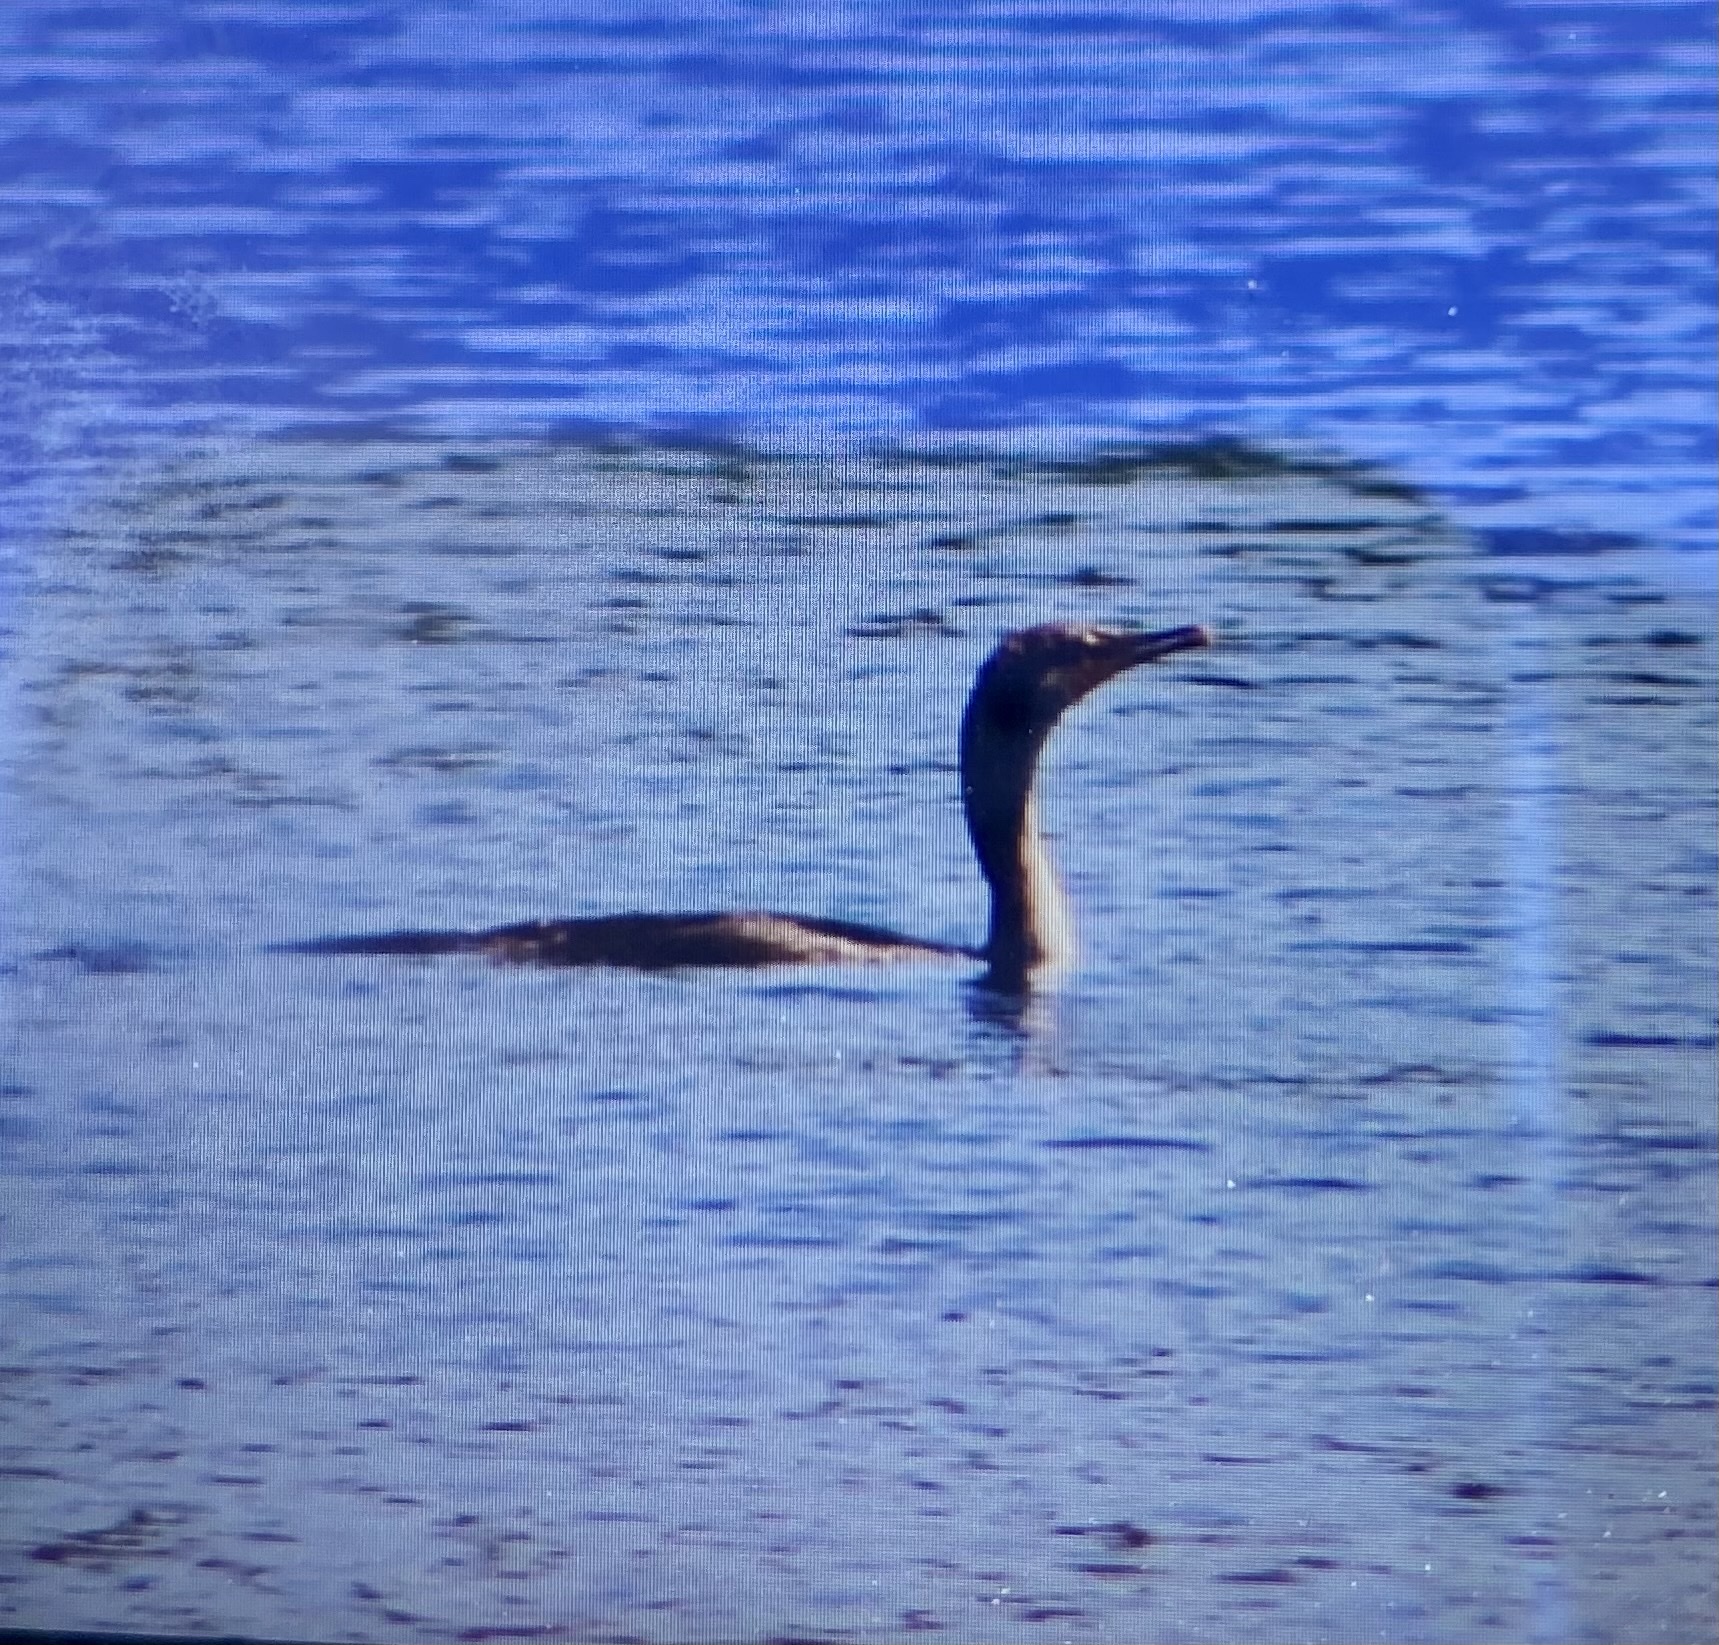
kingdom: Animalia
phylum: Chordata
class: Aves
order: Suliformes
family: Phalacrocoracidae
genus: Phalacrocorax
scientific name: Phalacrocorax auritus
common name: Double-crested cormorant
